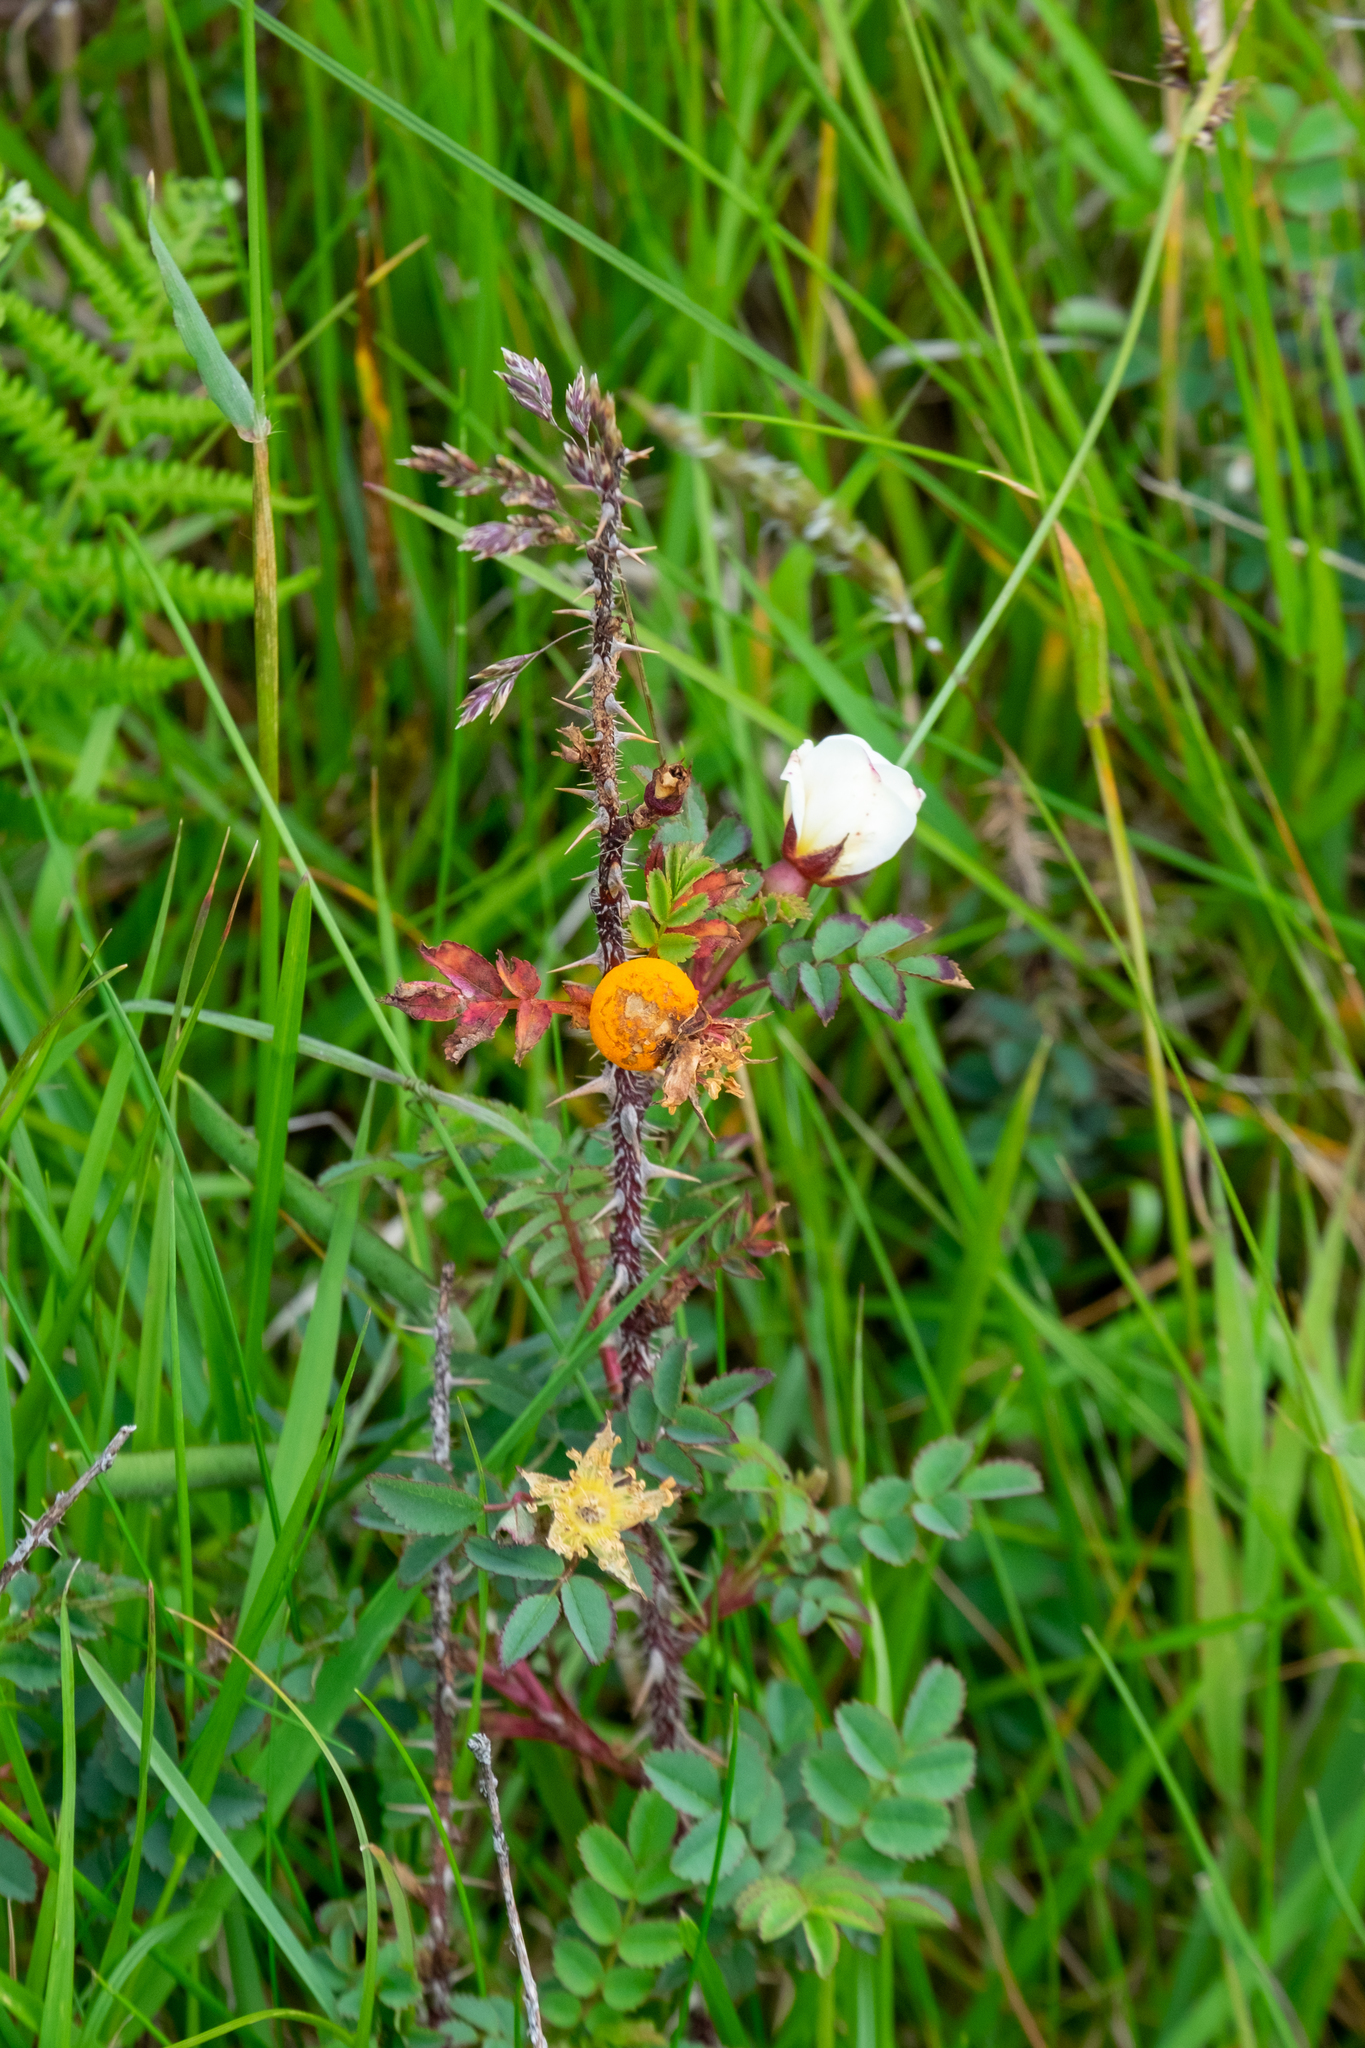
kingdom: Plantae
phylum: Tracheophyta
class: Magnoliopsida
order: Rosales
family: Rosaceae
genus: Rosa
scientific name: Rosa spinosissima
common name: Burnet rose
